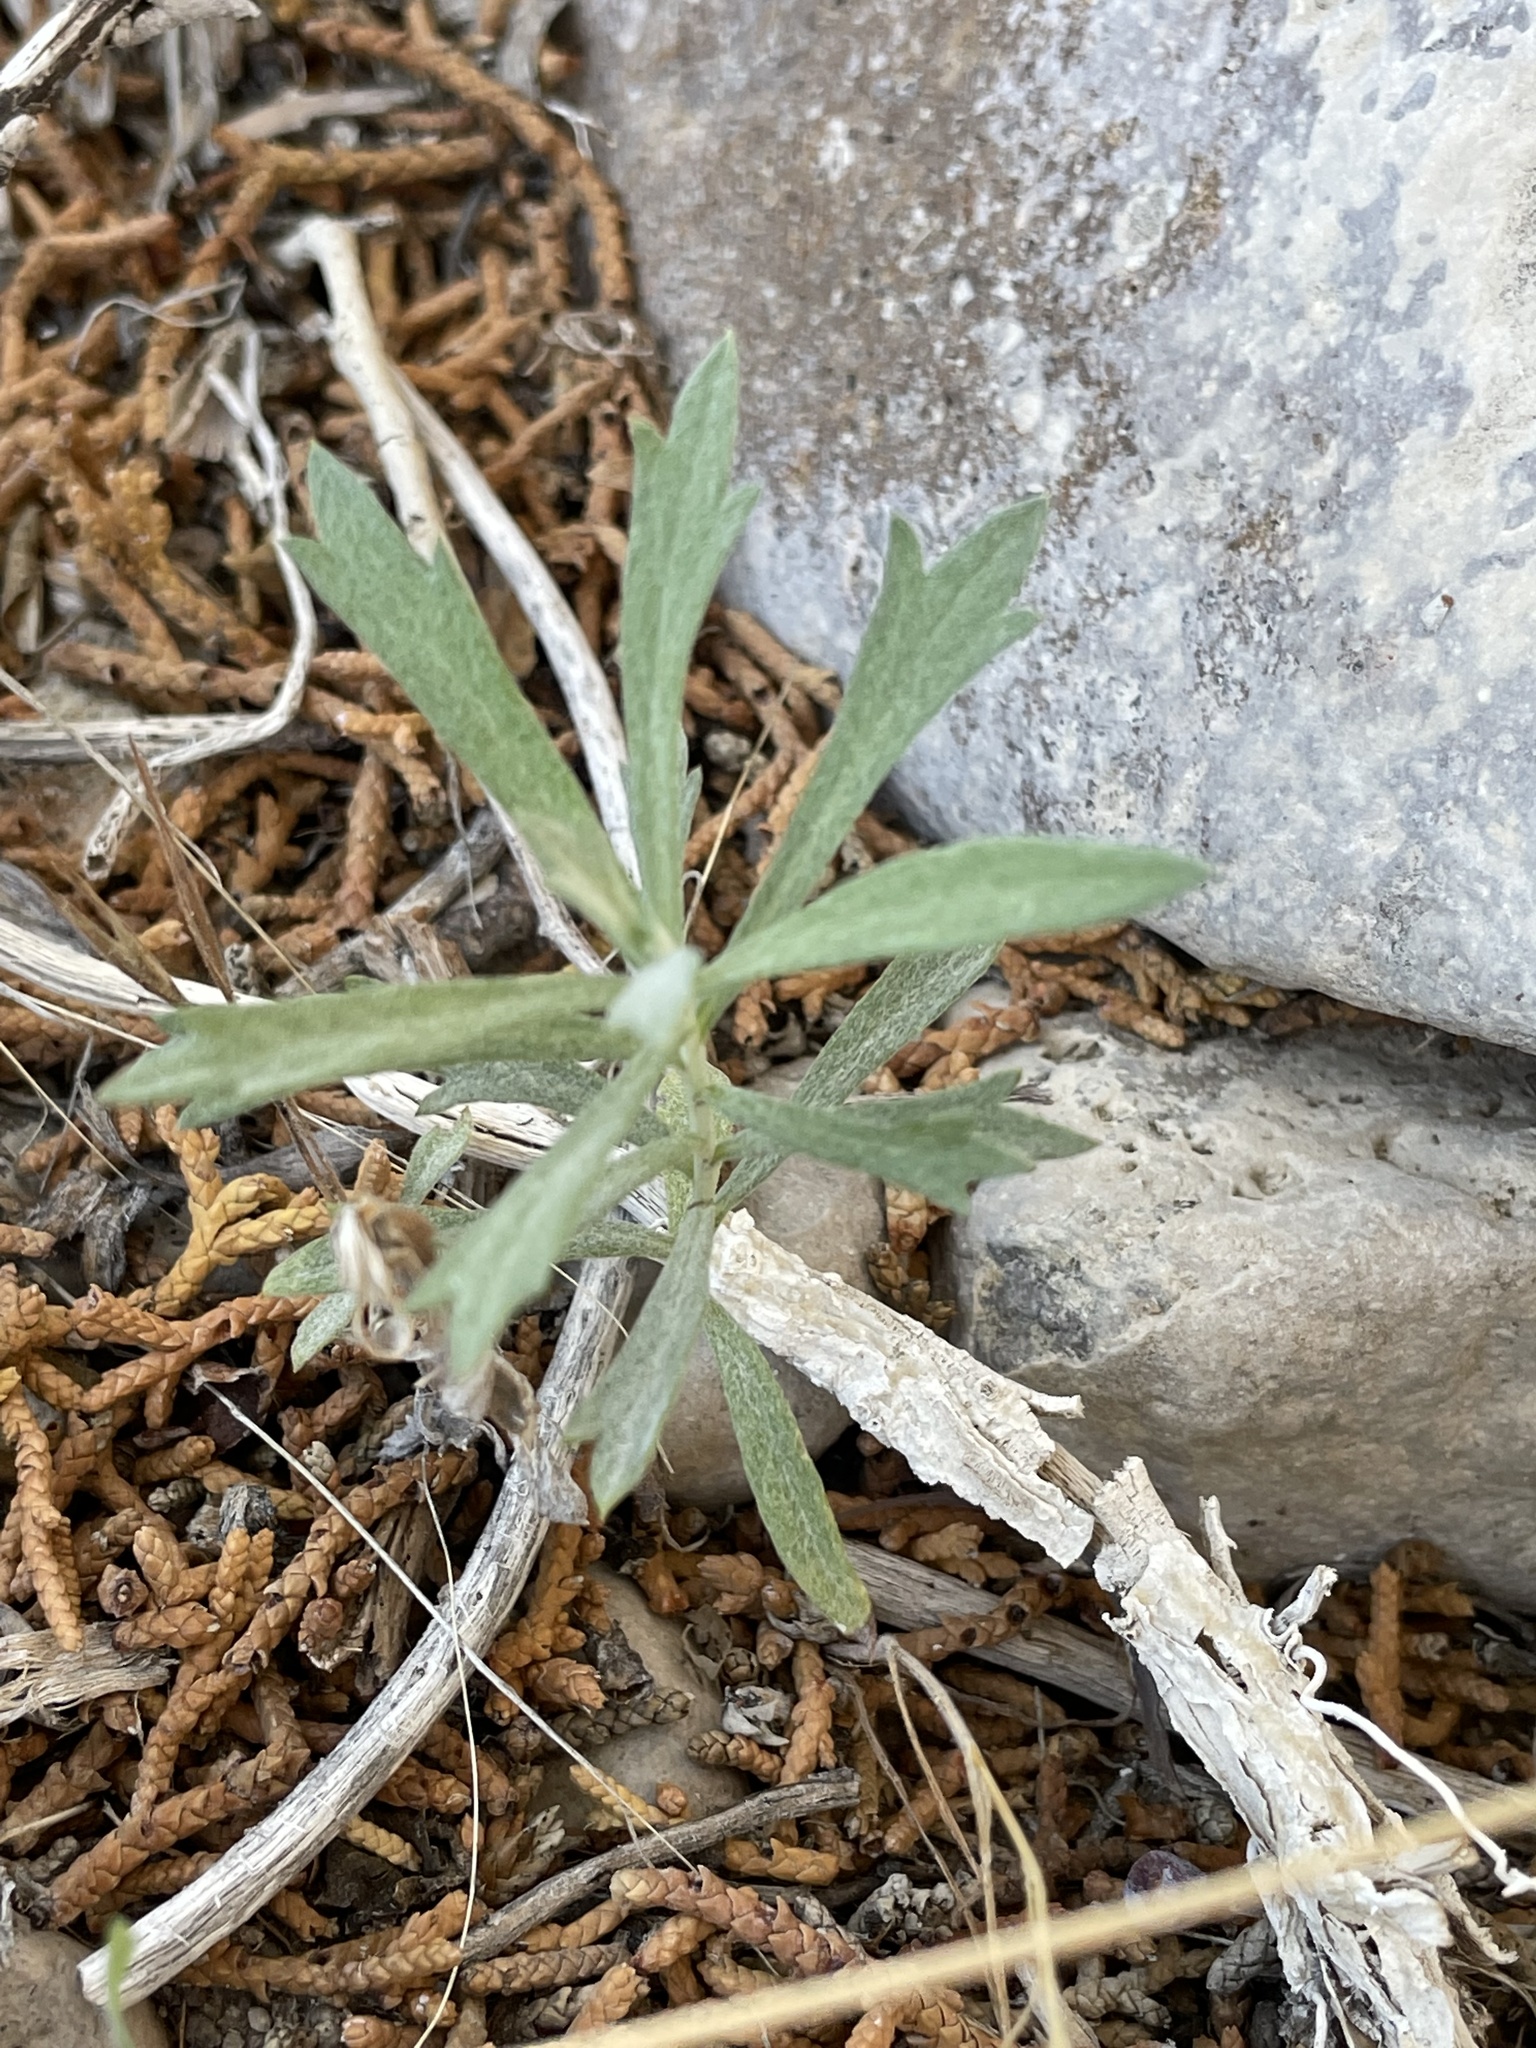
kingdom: Plantae
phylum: Tracheophyta
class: Magnoliopsida
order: Asterales
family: Asteraceae
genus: Artemisia
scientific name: Artemisia ludoviciana
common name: Western mugwort
